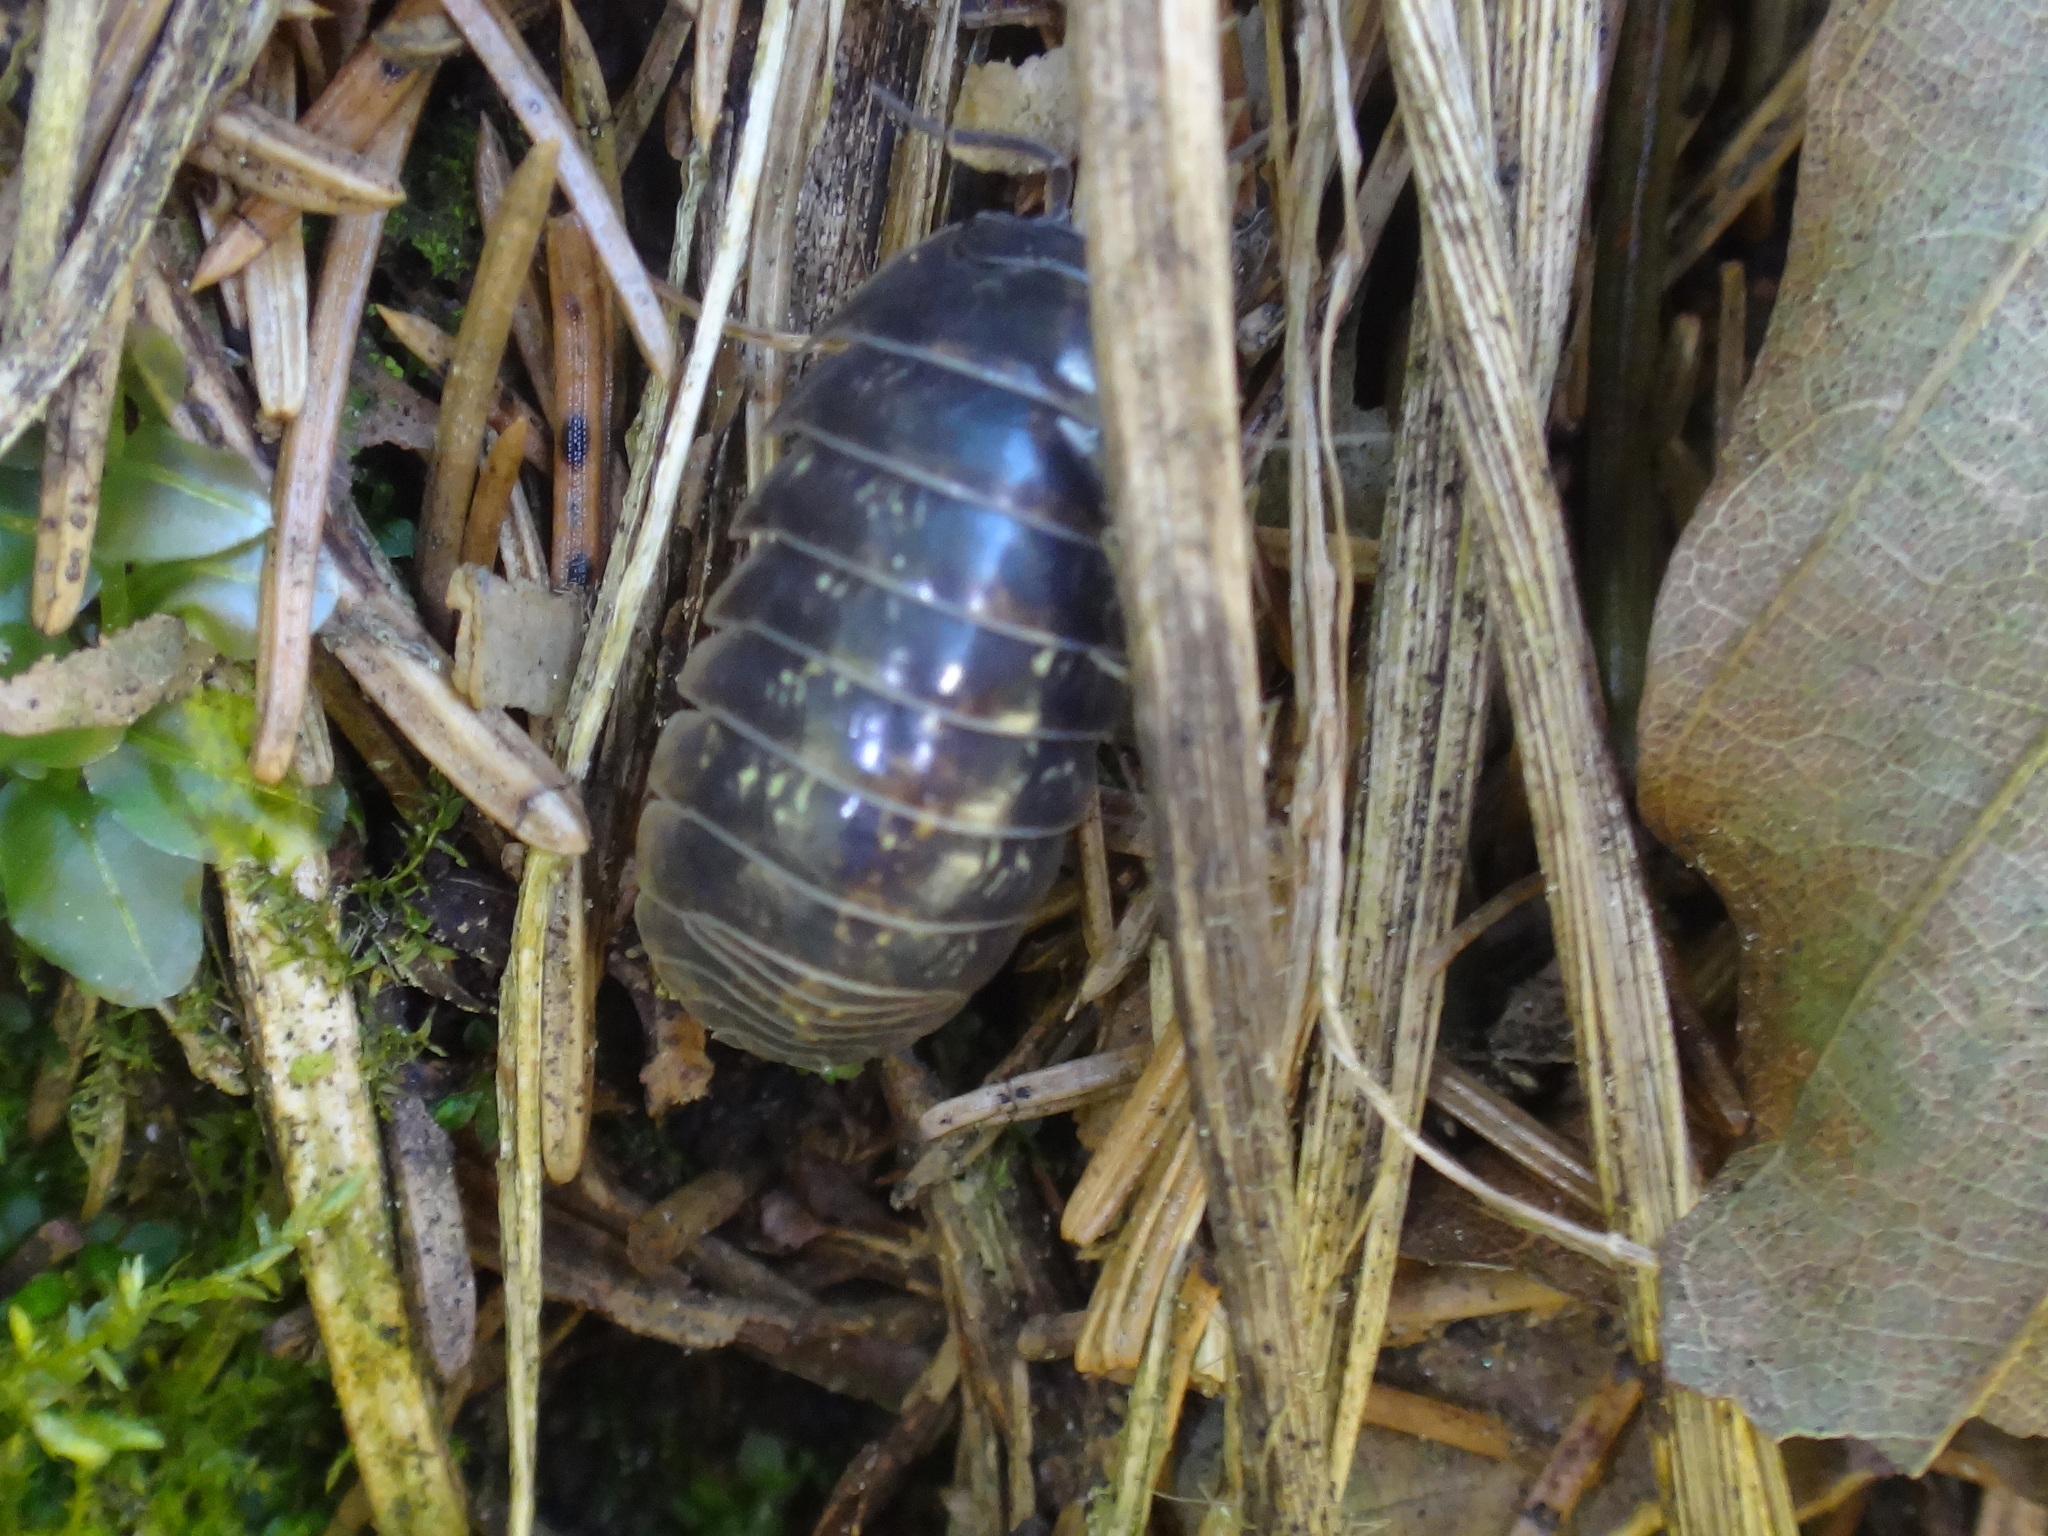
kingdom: Animalia
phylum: Arthropoda
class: Malacostraca
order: Isopoda
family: Armadillidiidae
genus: Armadillidium
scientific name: Armadillidium vulgare
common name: Common pill woodlouse
